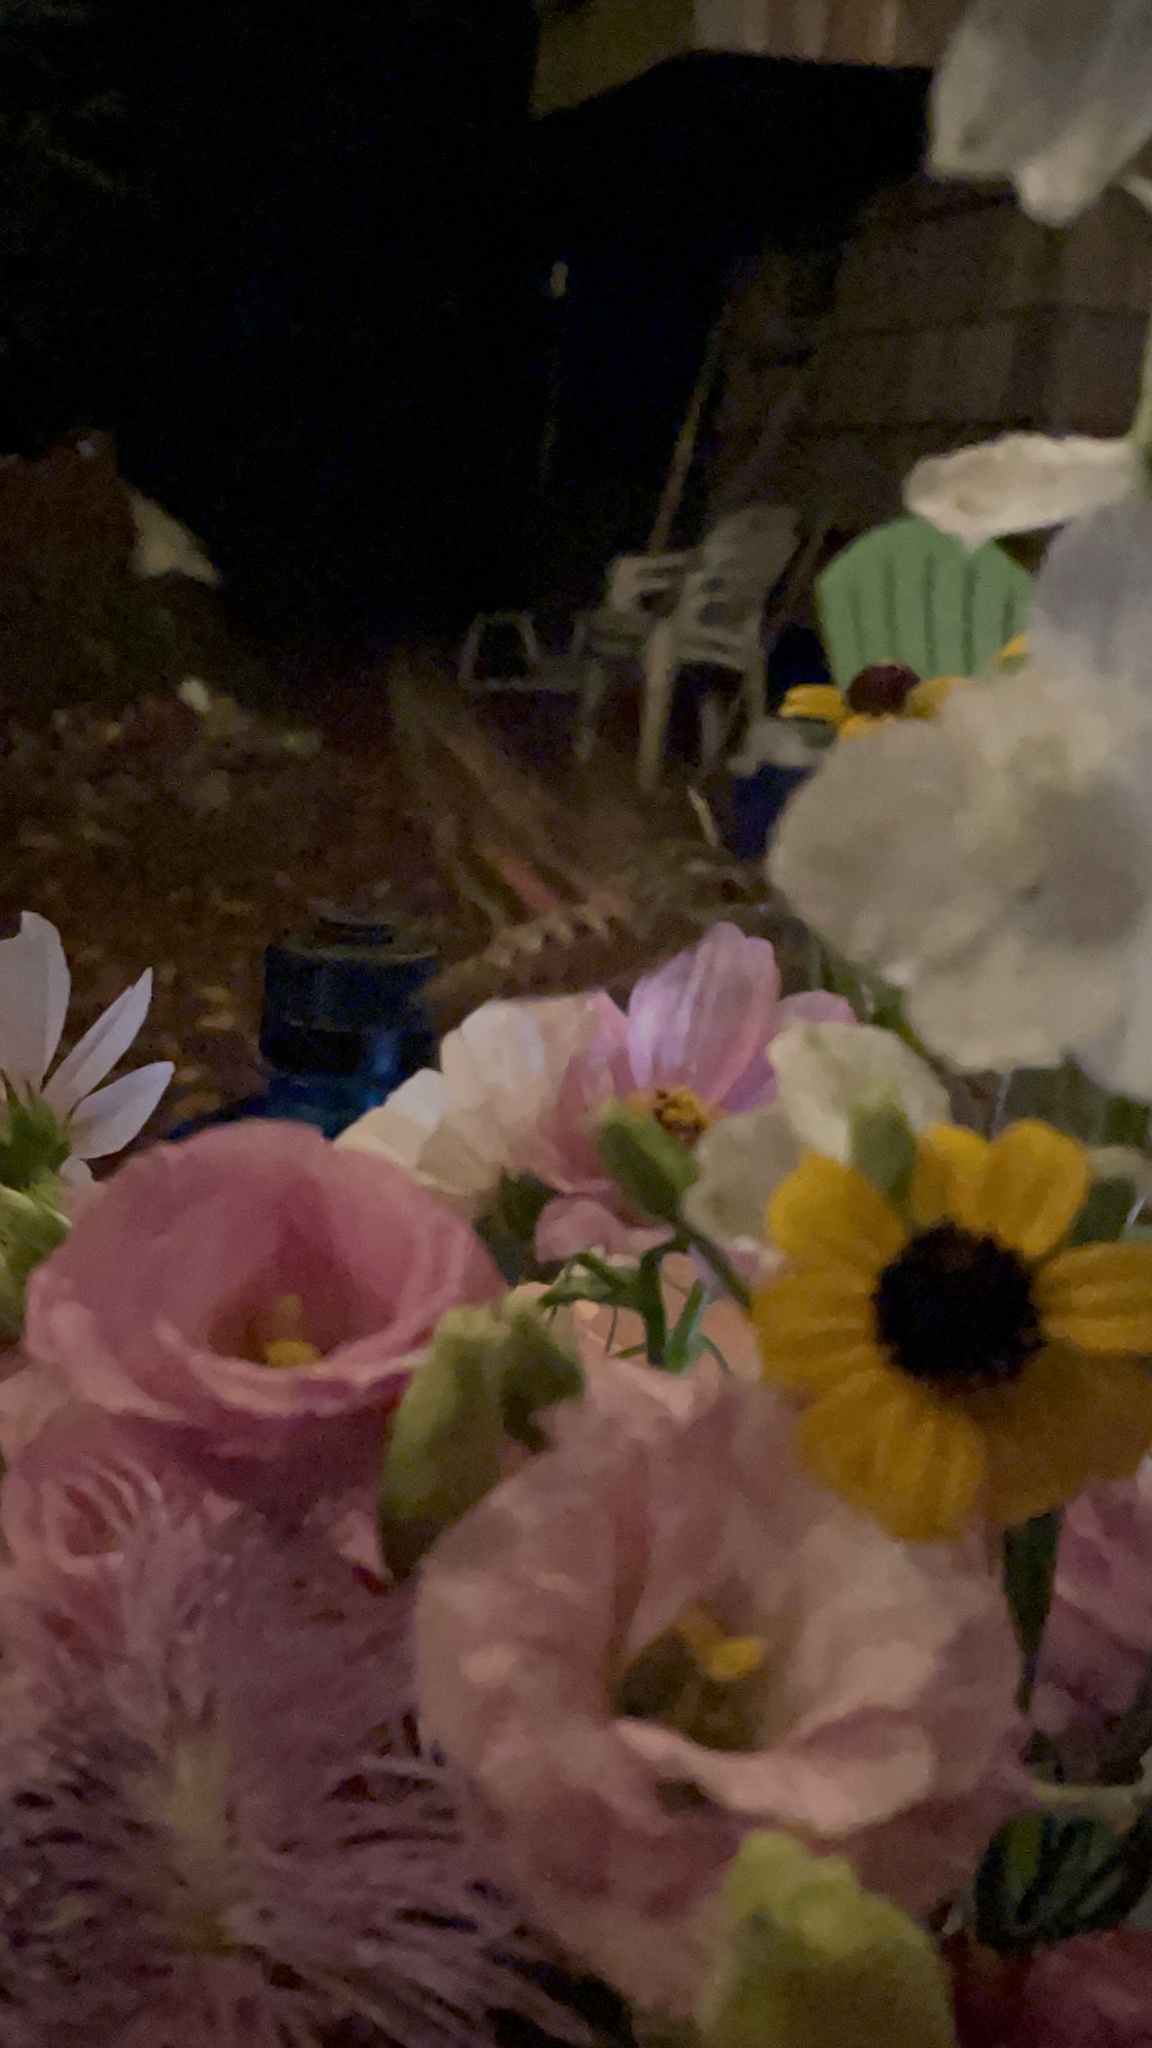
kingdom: Animalia
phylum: Arthropoda
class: Insecta
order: Lepidoptera
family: Sphingidae
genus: Hyles
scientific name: Hyles lineata
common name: White-lined sphinx
